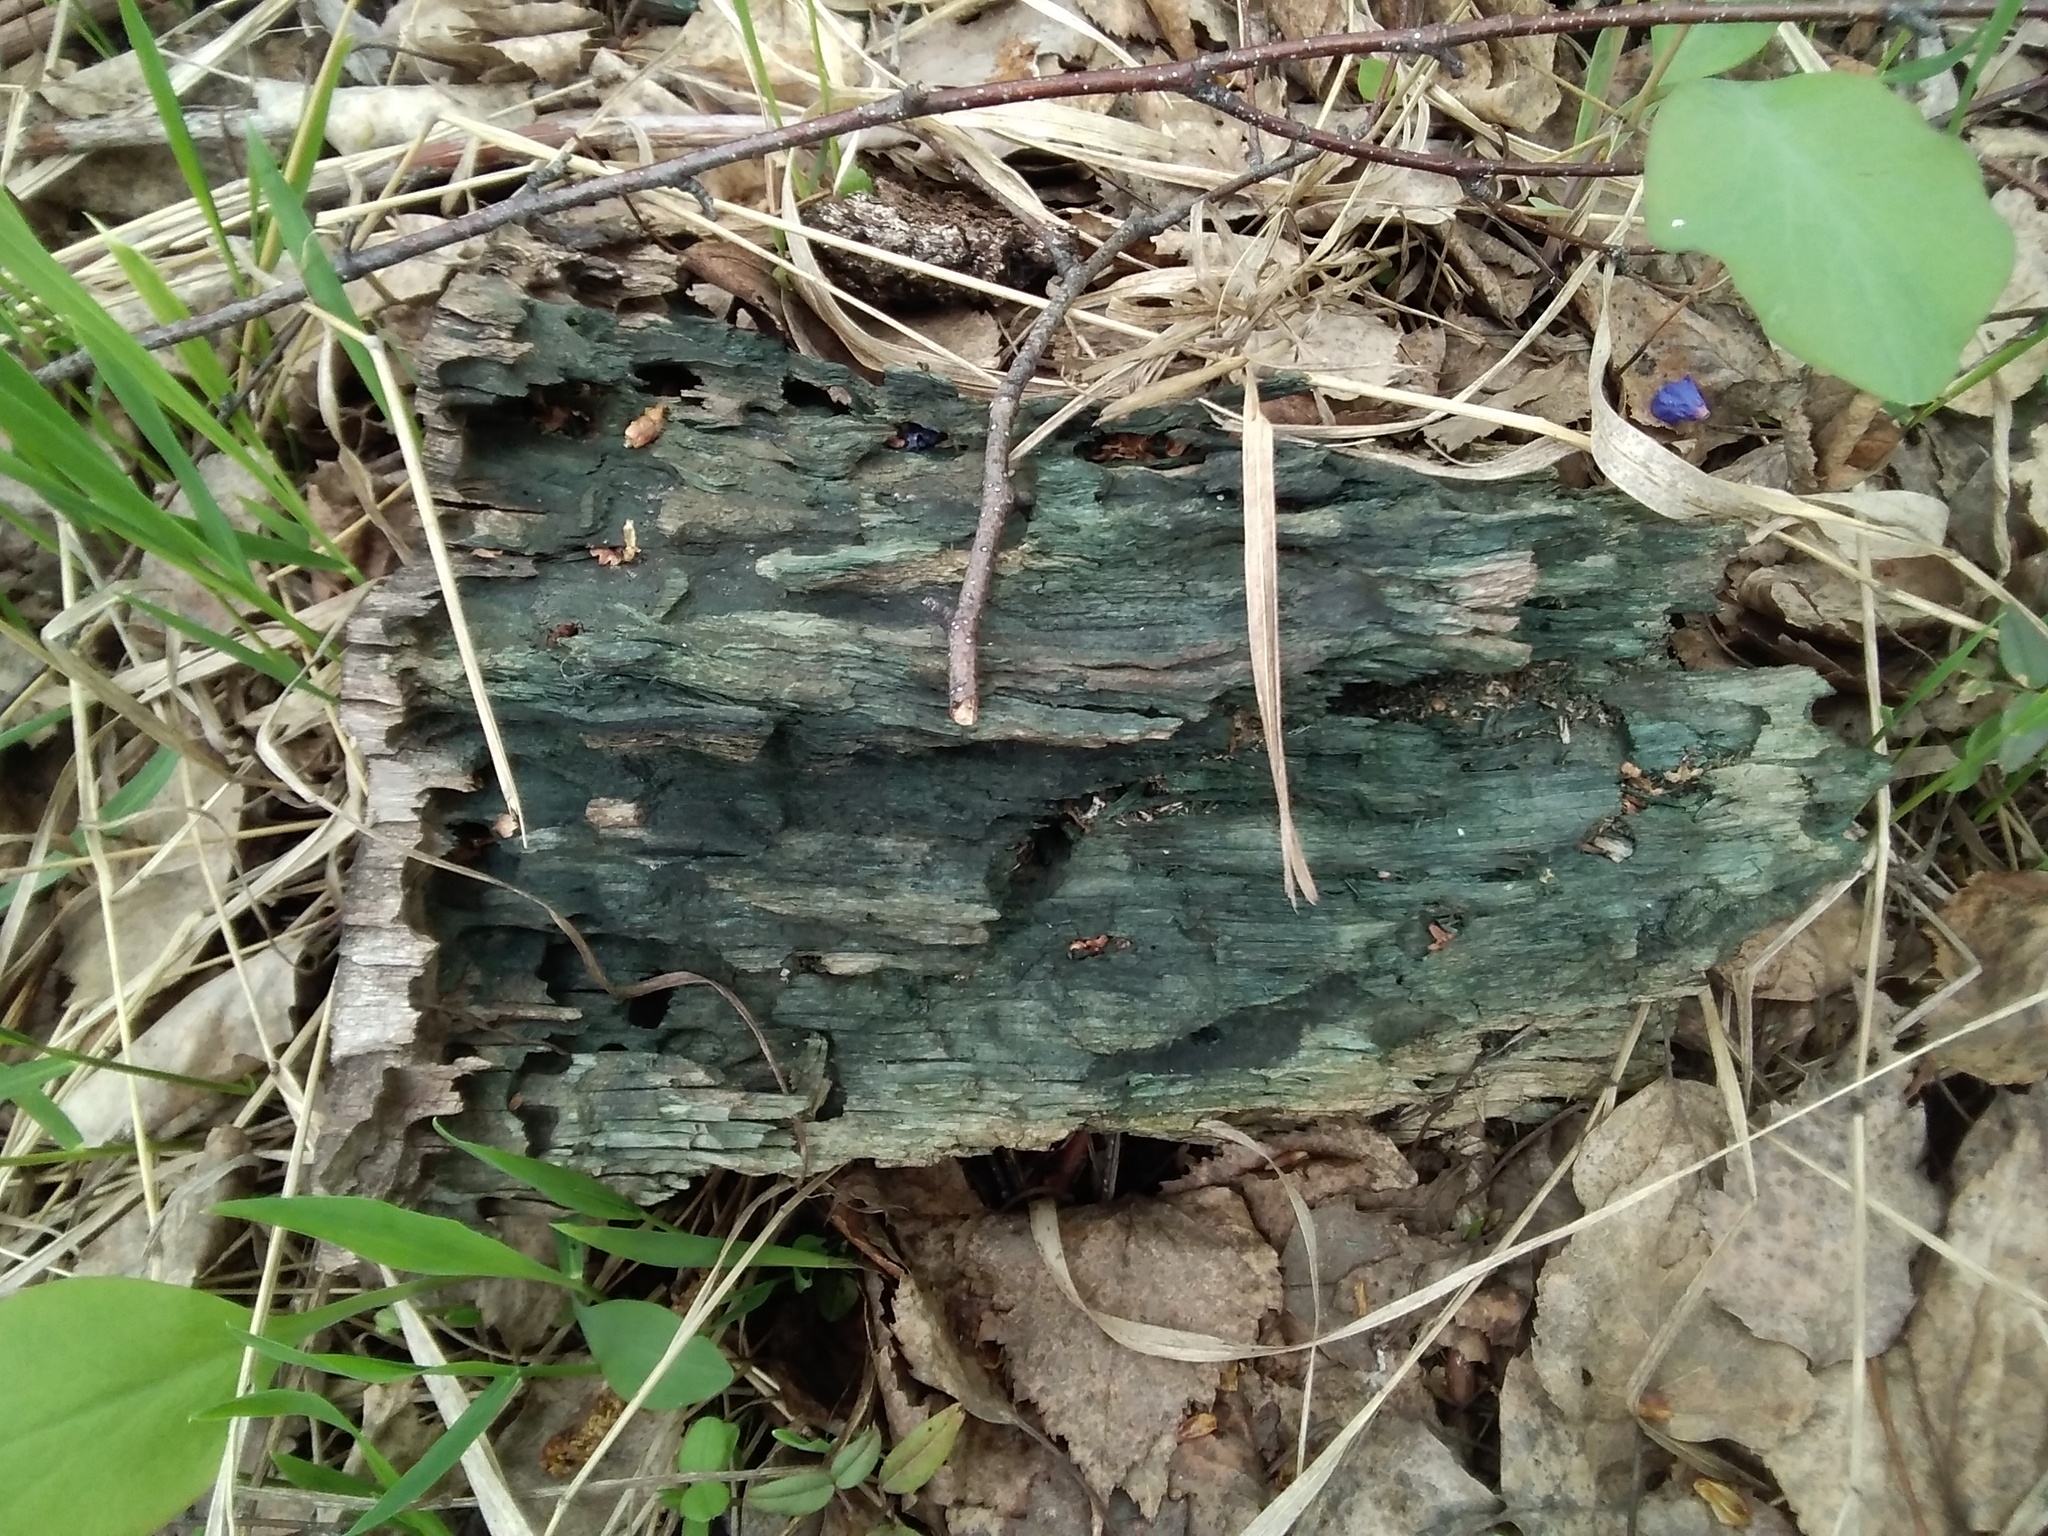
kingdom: Fungi
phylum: Ascomycota
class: Leotiomycetes
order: Helotiales
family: Chlorociboriaceae
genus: Chlorociboria
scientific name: Chlorociboria
